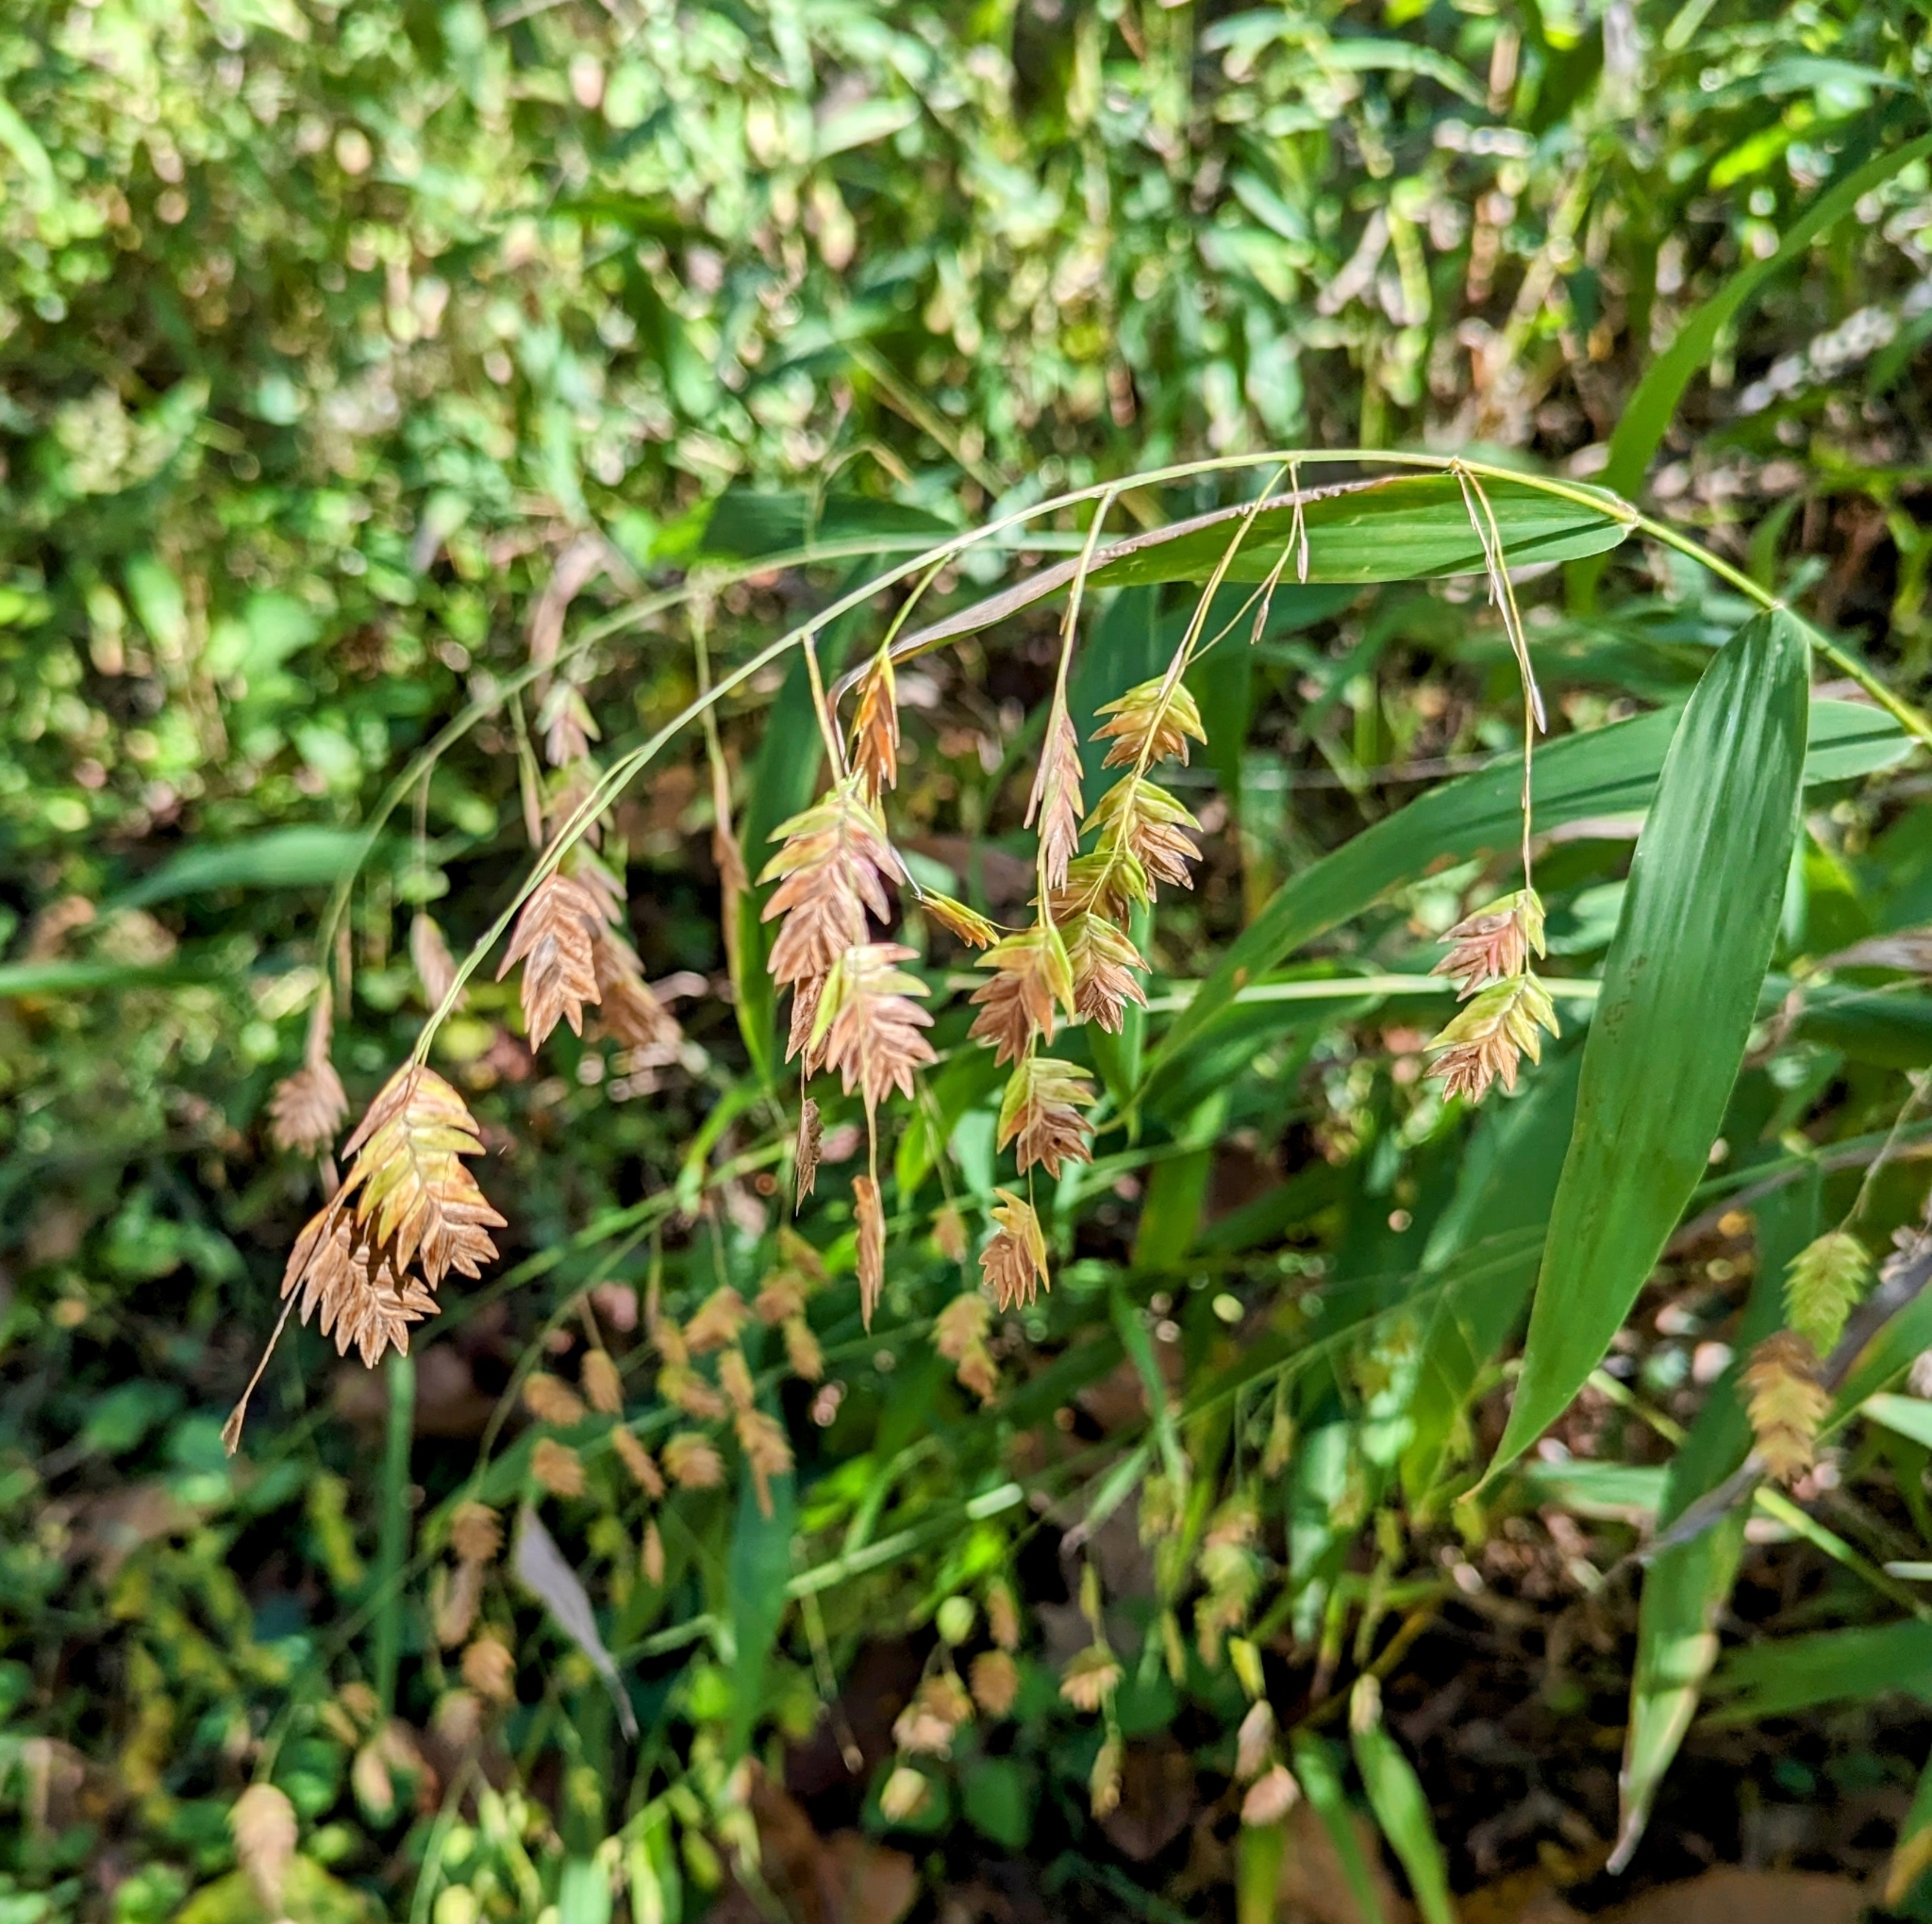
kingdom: Plantae
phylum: Tracheophyta
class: Liliopsida
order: Poales
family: Poaceae
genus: Chasmanthium
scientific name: Chasmanthium latifolium
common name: Broad-leaved chasmanthium
